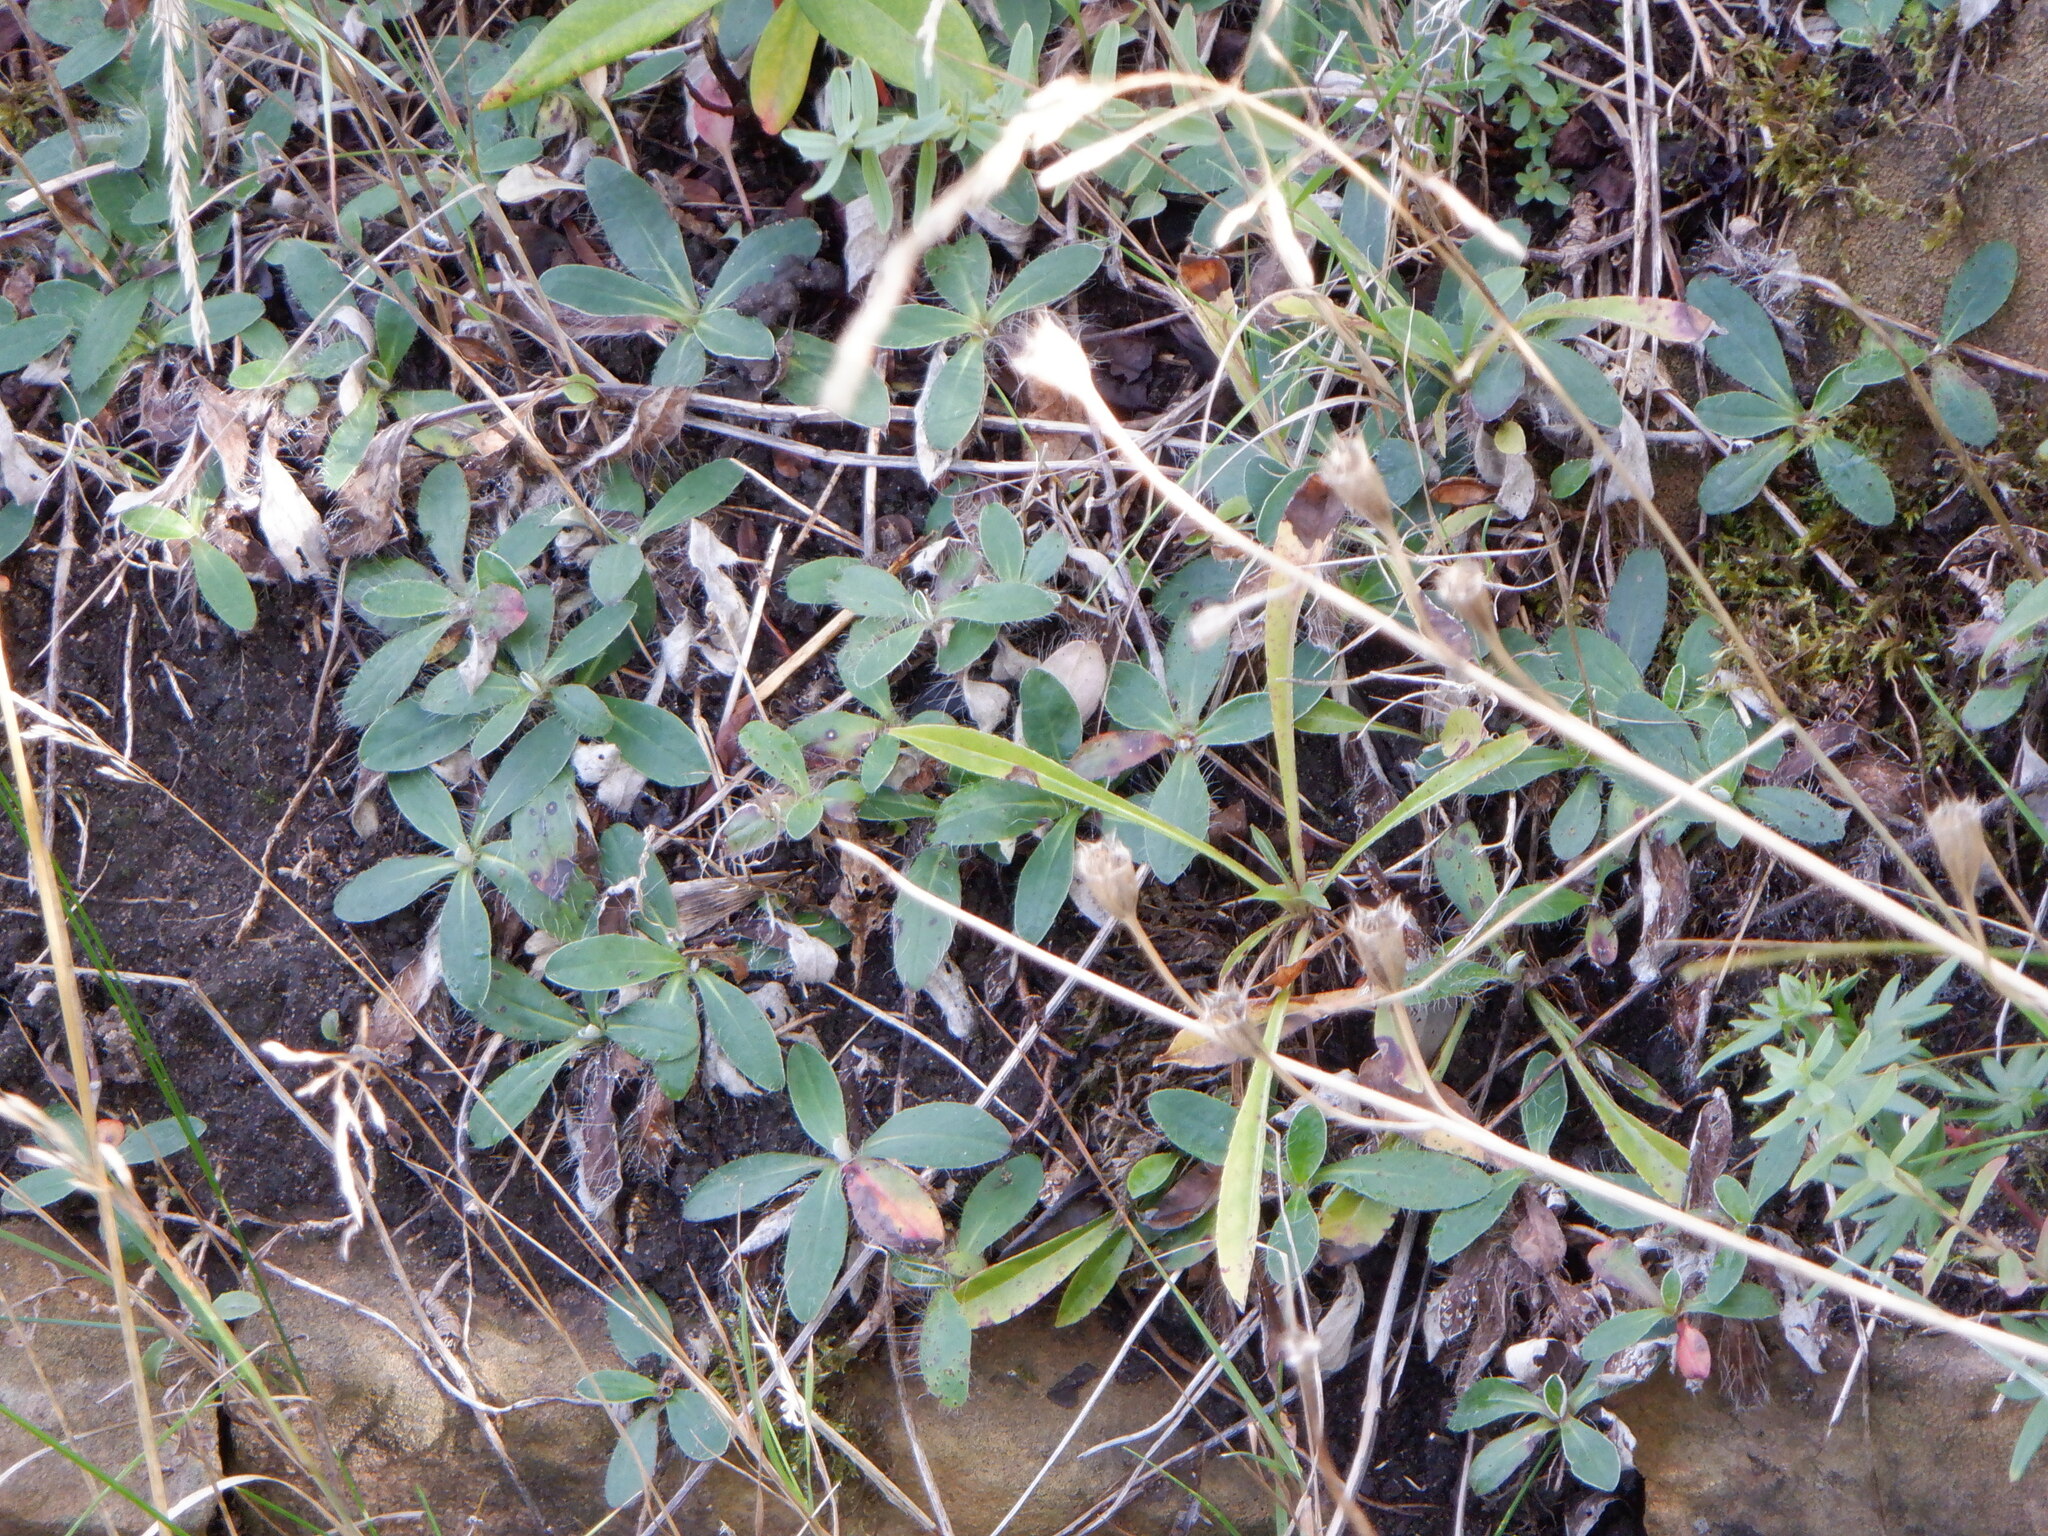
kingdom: Plantae
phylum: Tracheophyta
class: Magnoliopsida
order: Asterales
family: Asteraceae
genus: Pilosella
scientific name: Pilosella officinarum
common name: Mouse-ear hawkweed
